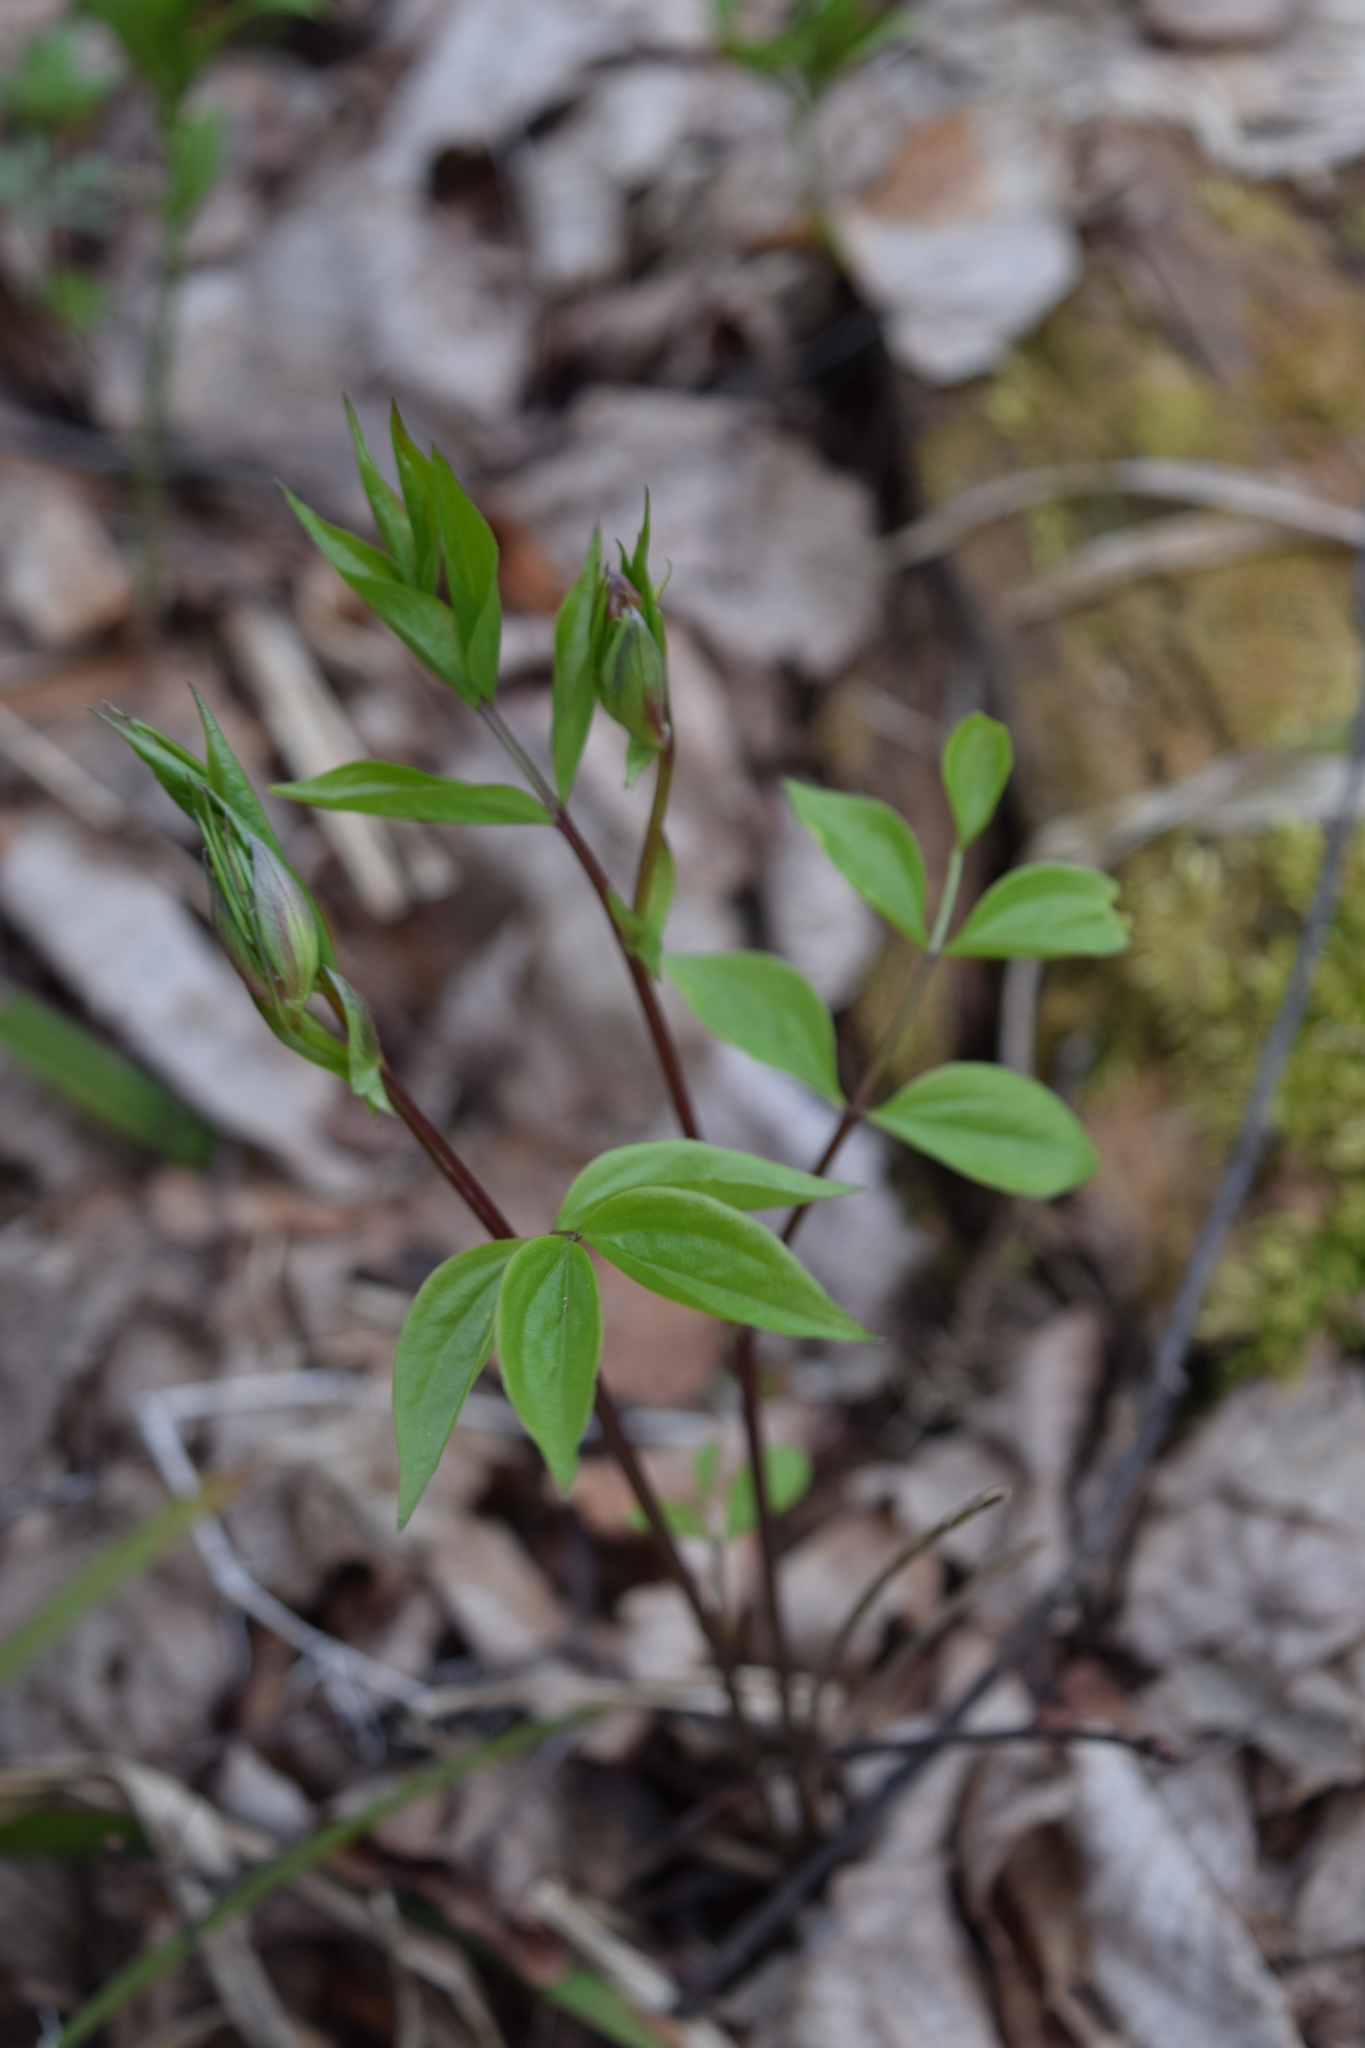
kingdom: Plantae
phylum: Tracheophyta
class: Magnoliopsida
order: Fabales
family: Fabaceae
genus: Lathyrus
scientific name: Lathyrus vernus
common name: Spring pea
